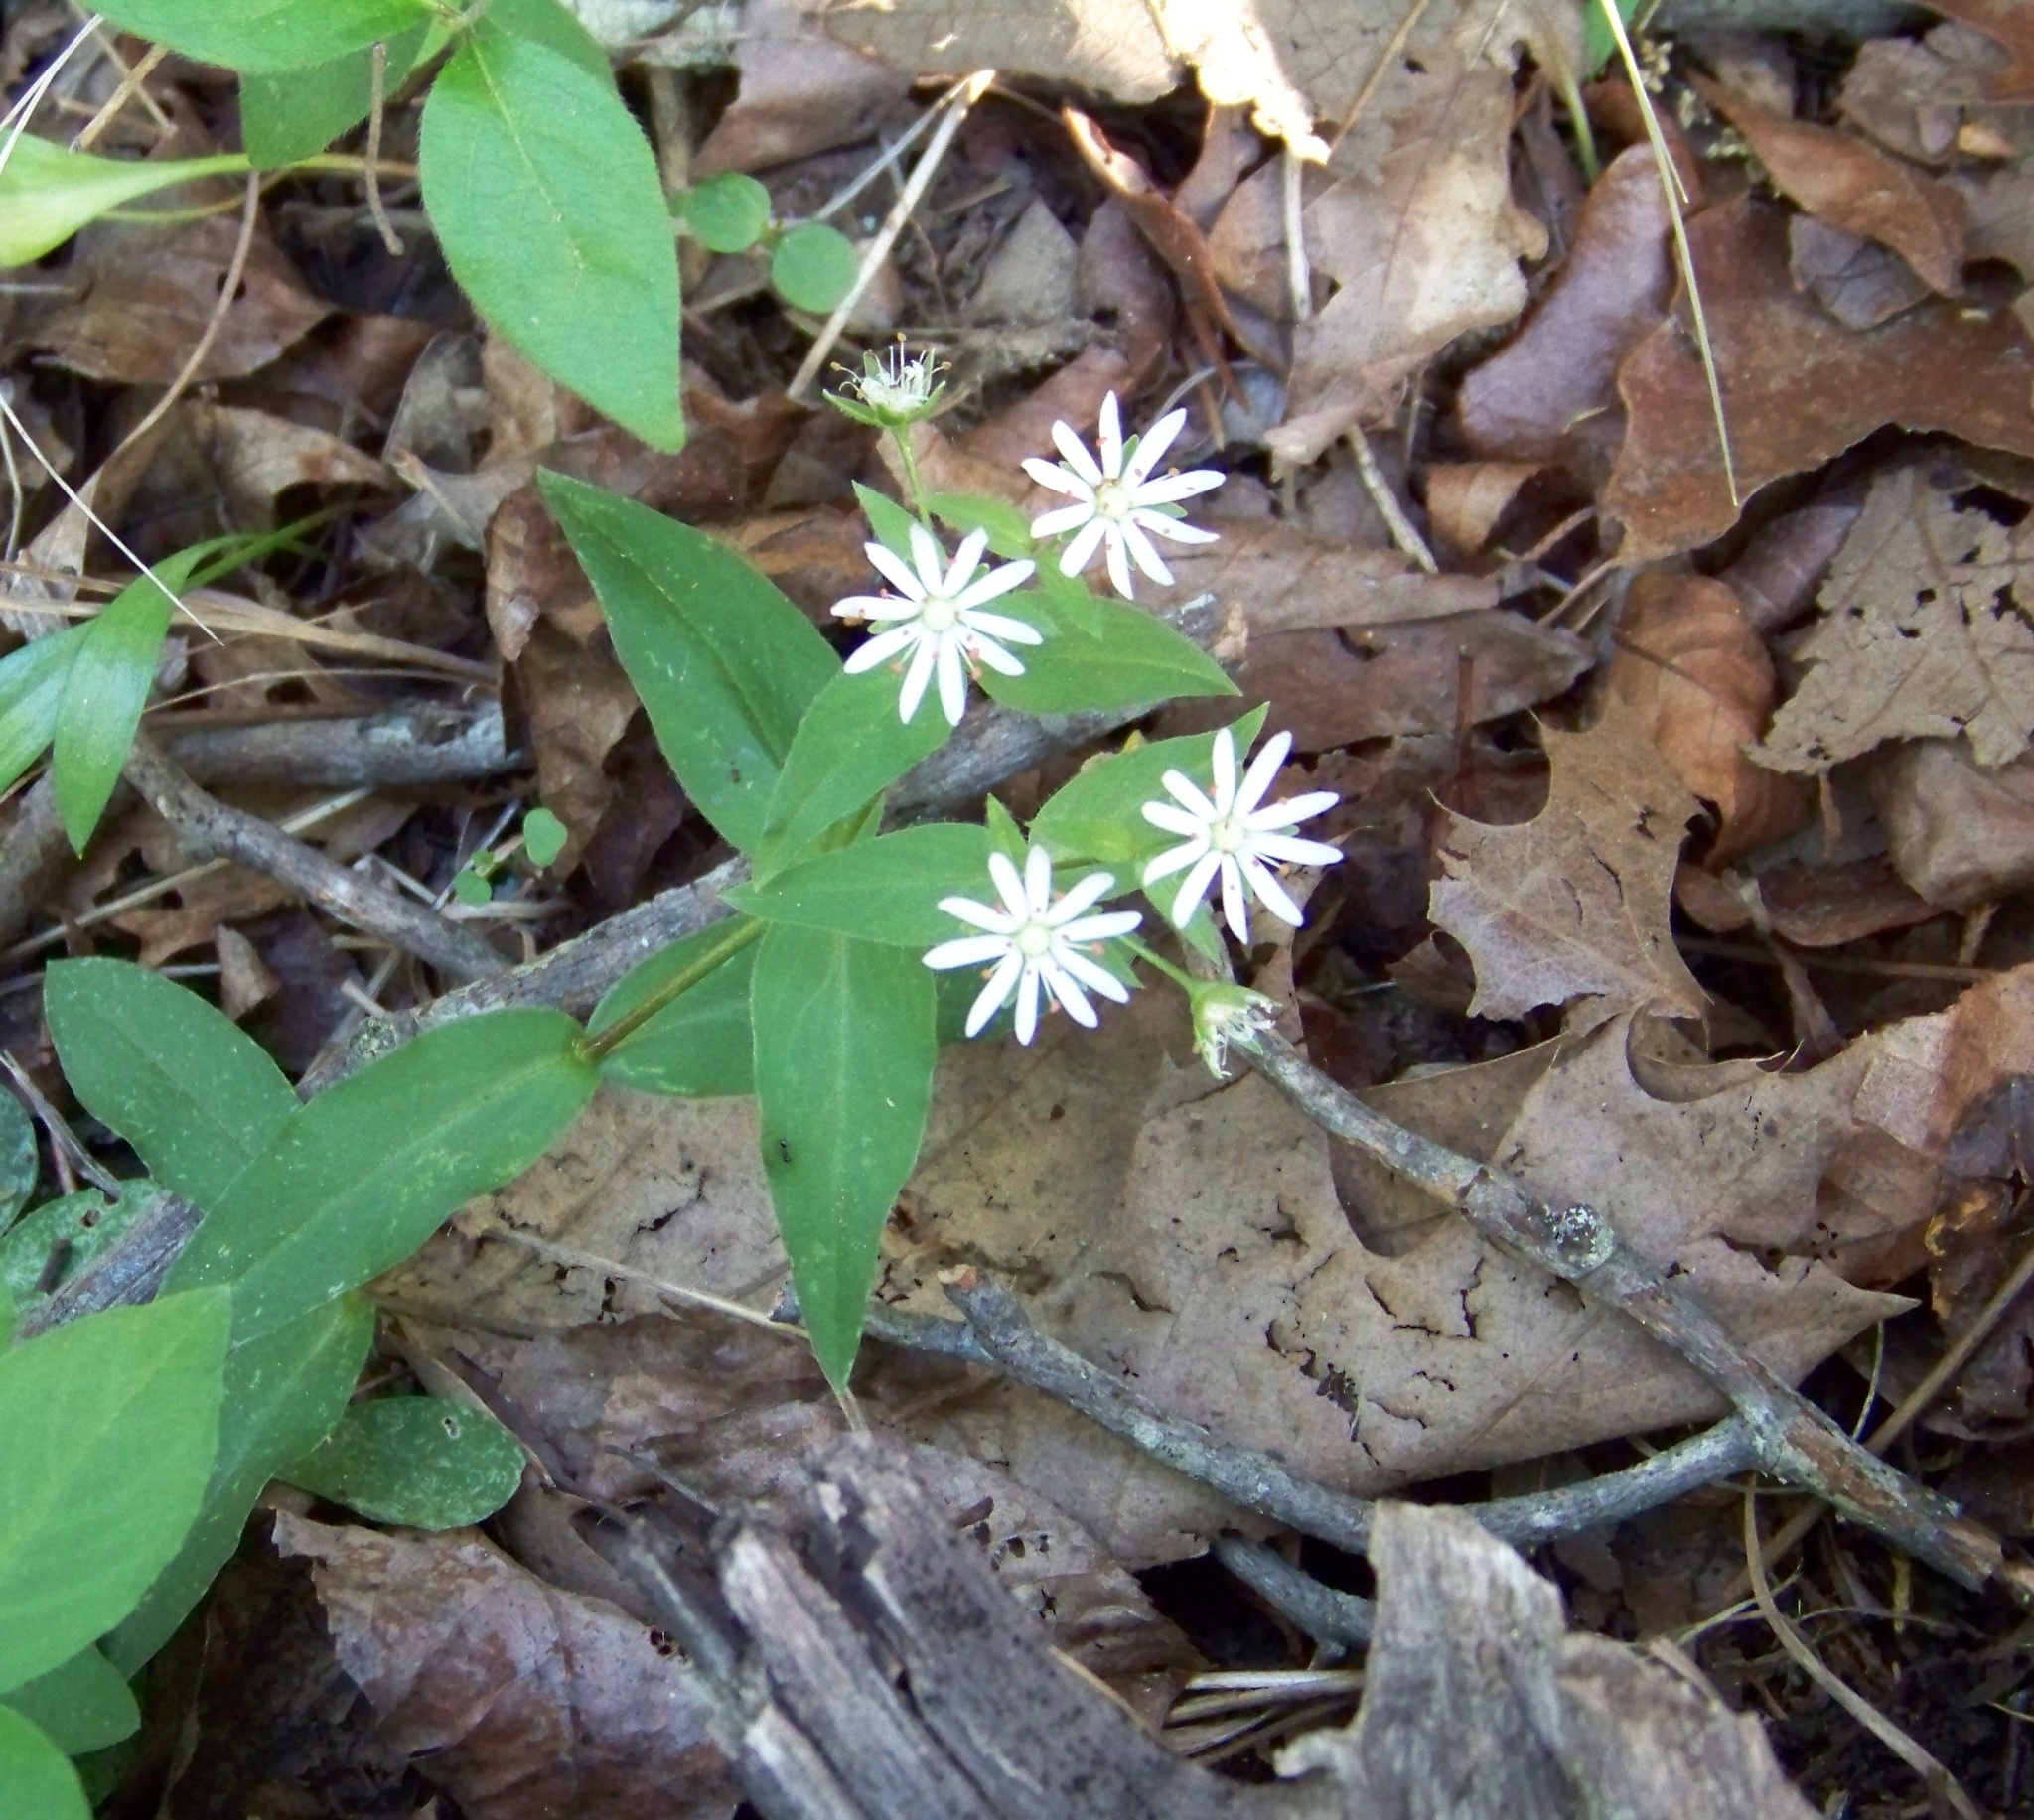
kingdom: Plantae
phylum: Tracheophyta
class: Magnoliopsida
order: Caryophyllales
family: Caryophyllaceae
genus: Stellaria
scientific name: Stellaria pubera
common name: Star chickweed
